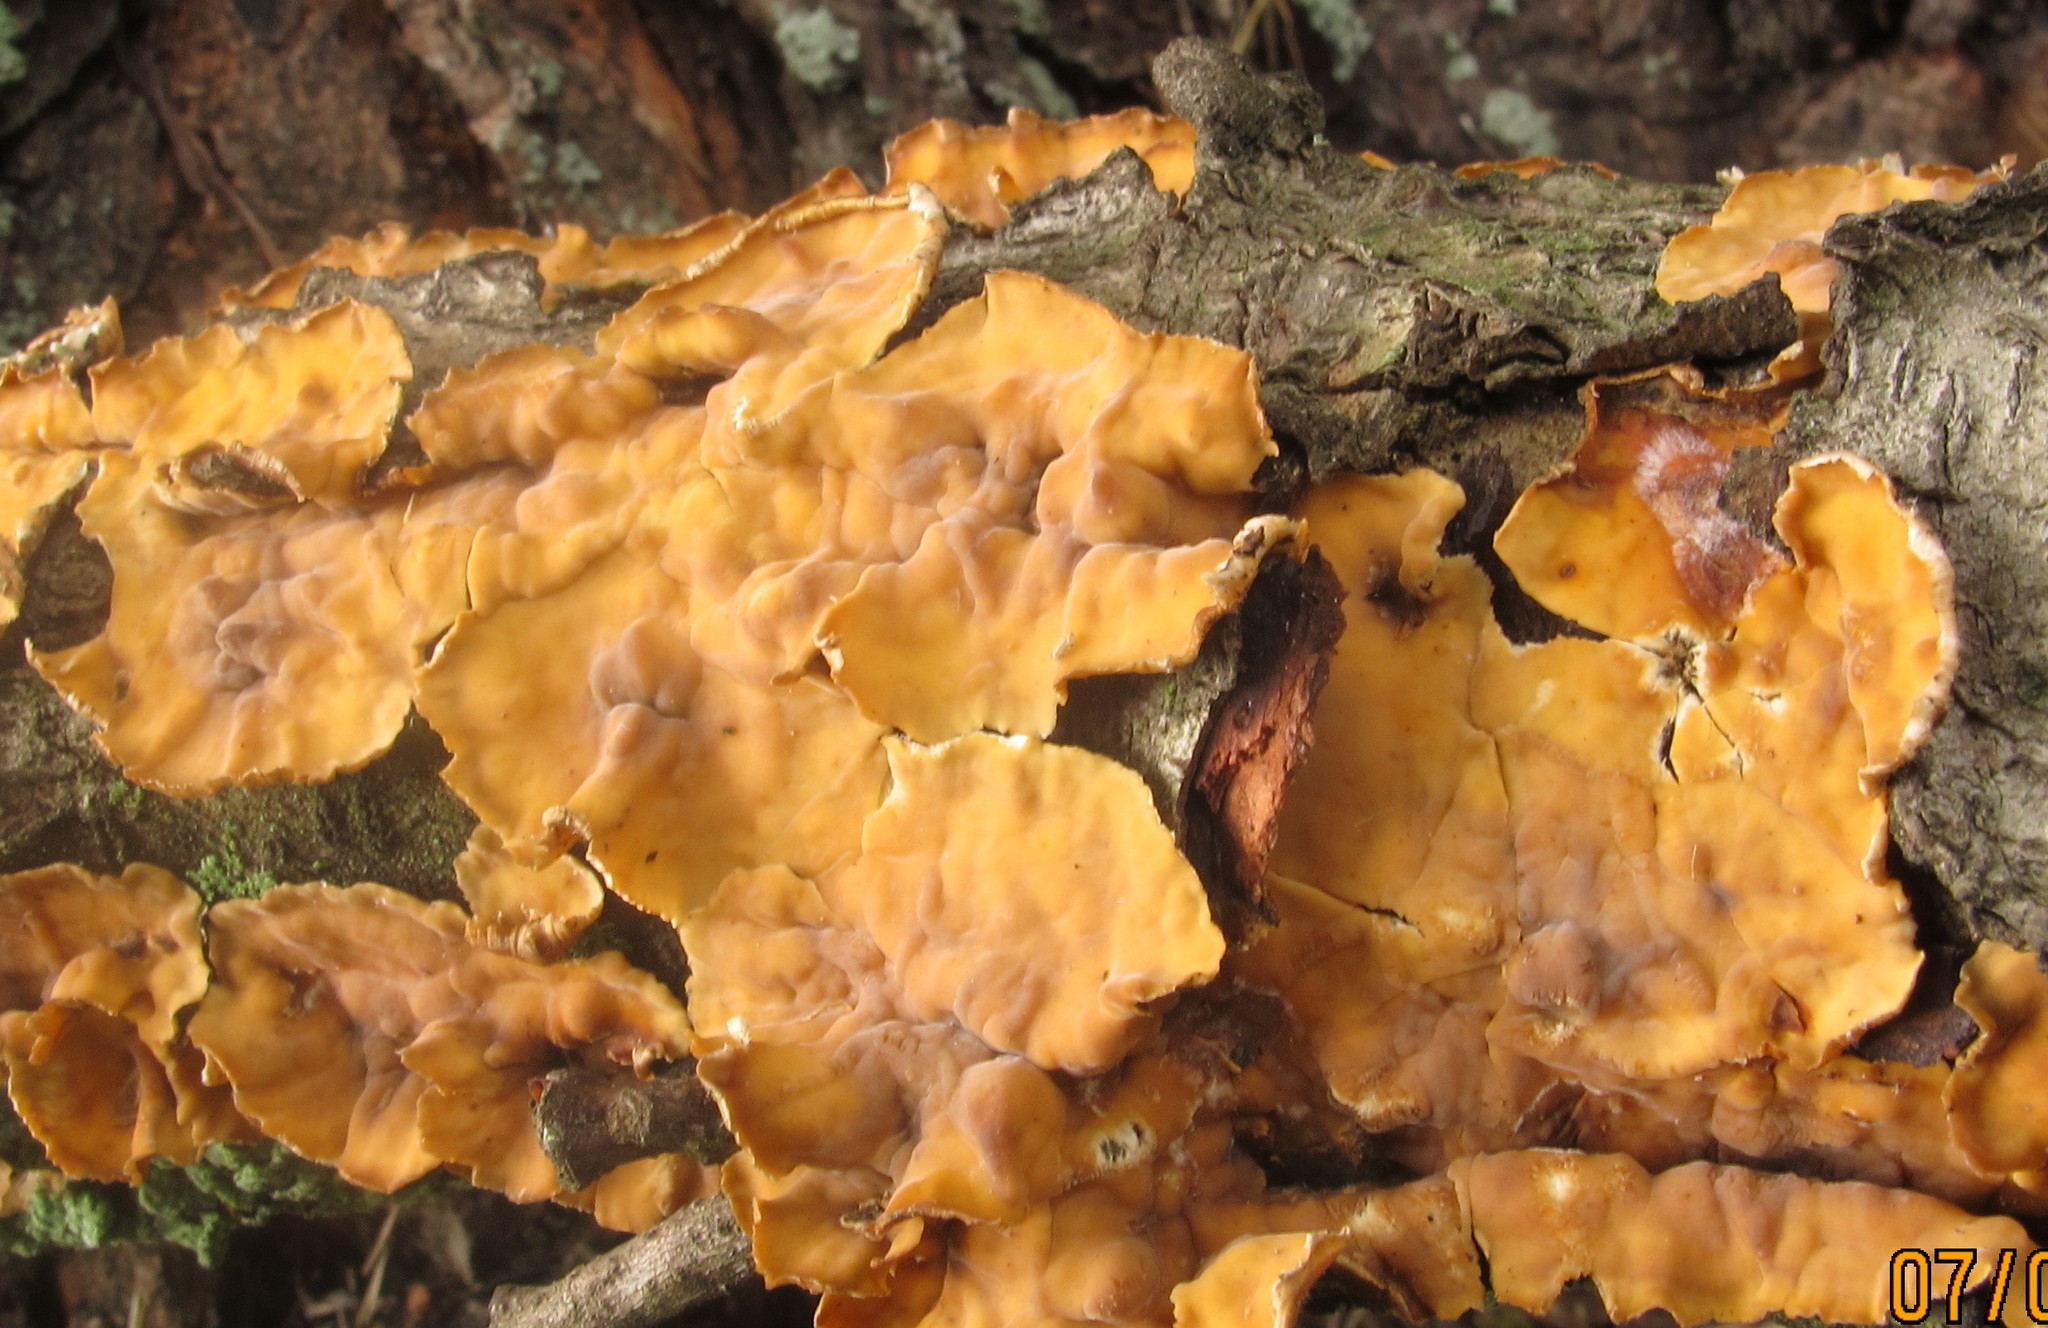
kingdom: Fungi
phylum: Basidiomycota
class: Agaricomycetes
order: Russulales
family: Stereaceae
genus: Stereum
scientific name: Stereum complicatum
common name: Crowded parchment
